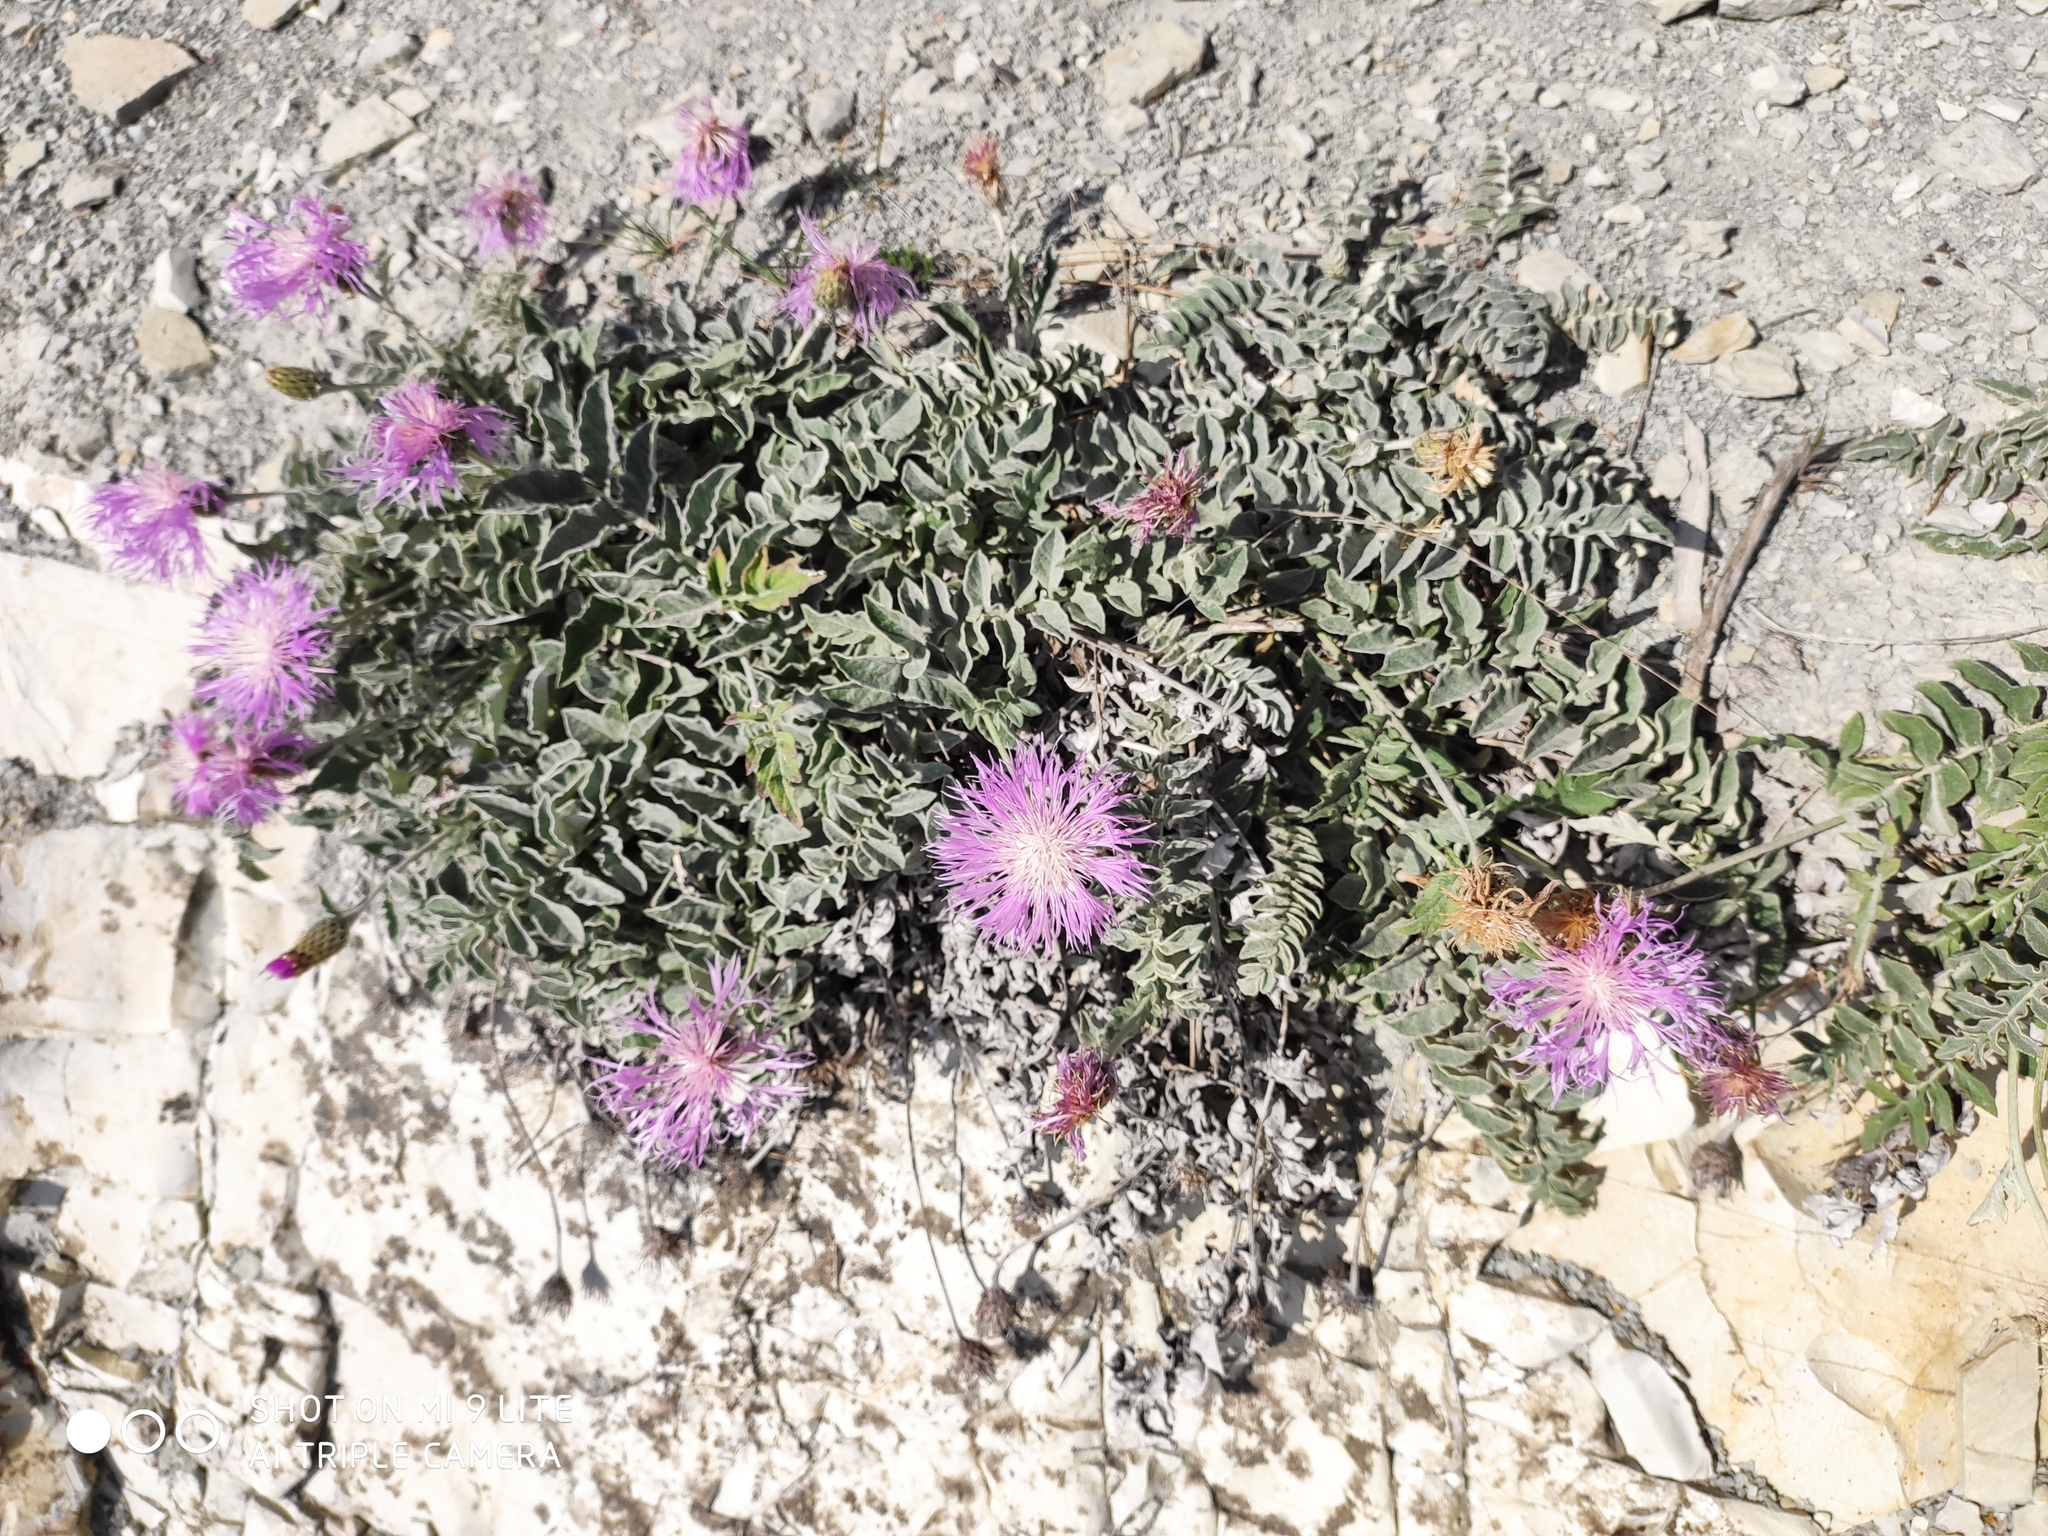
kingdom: Plantae
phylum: Tracheophyta
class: Magnoliopsida
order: Asterales
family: Asteraceae
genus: Psephellus
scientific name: Psephellus declinatus
